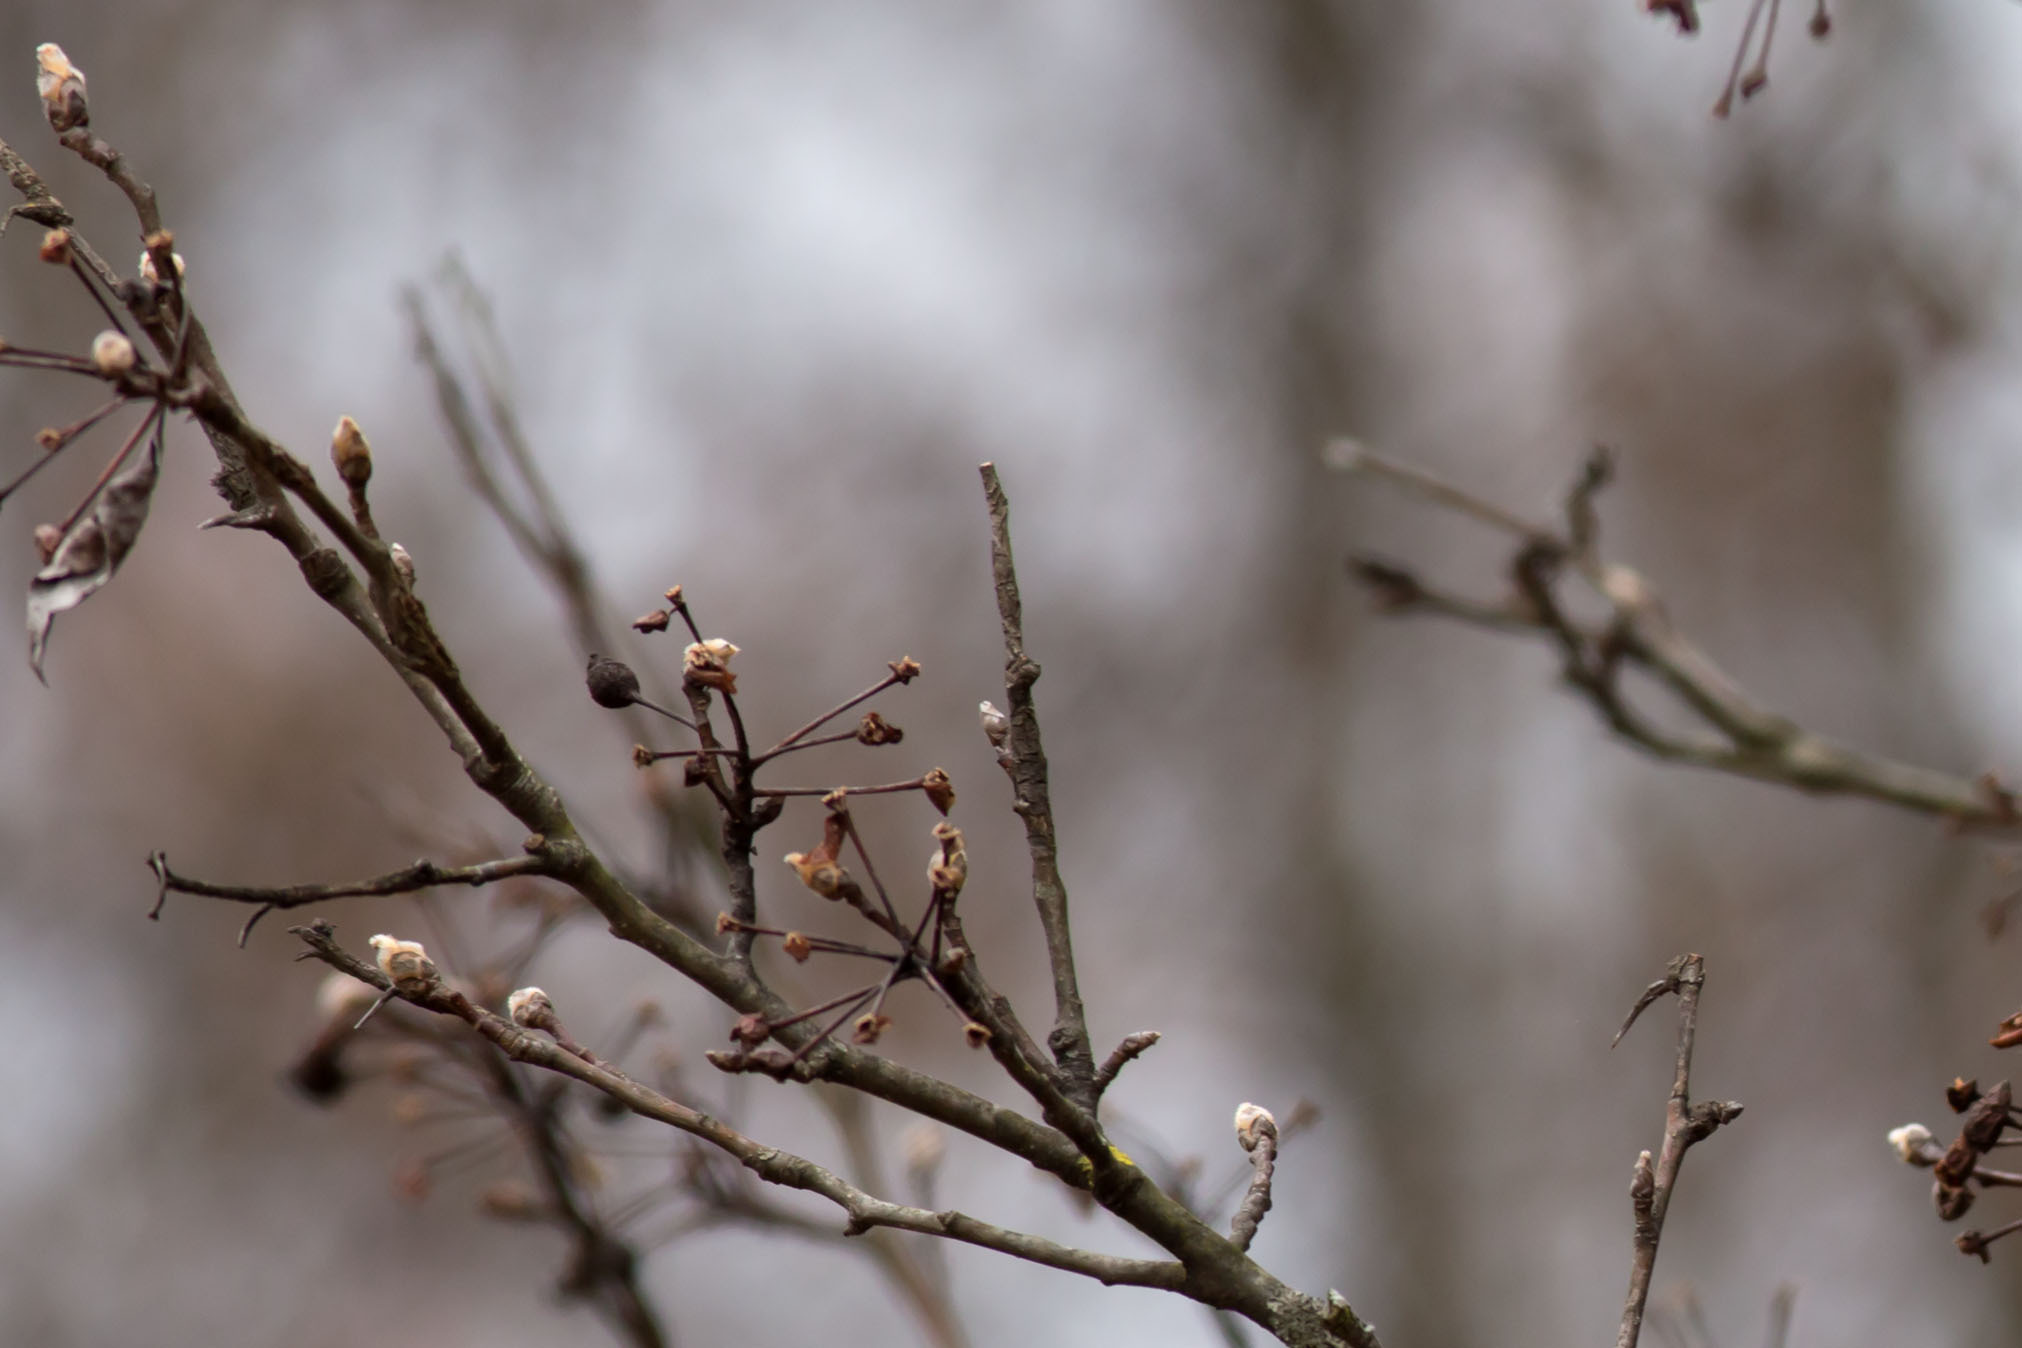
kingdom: Plantae
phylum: Tracheophyta
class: Magnoliopsida
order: Rosales
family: Rosaceae
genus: Pyrus
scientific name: Pyrus calleryana
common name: Callery pear
